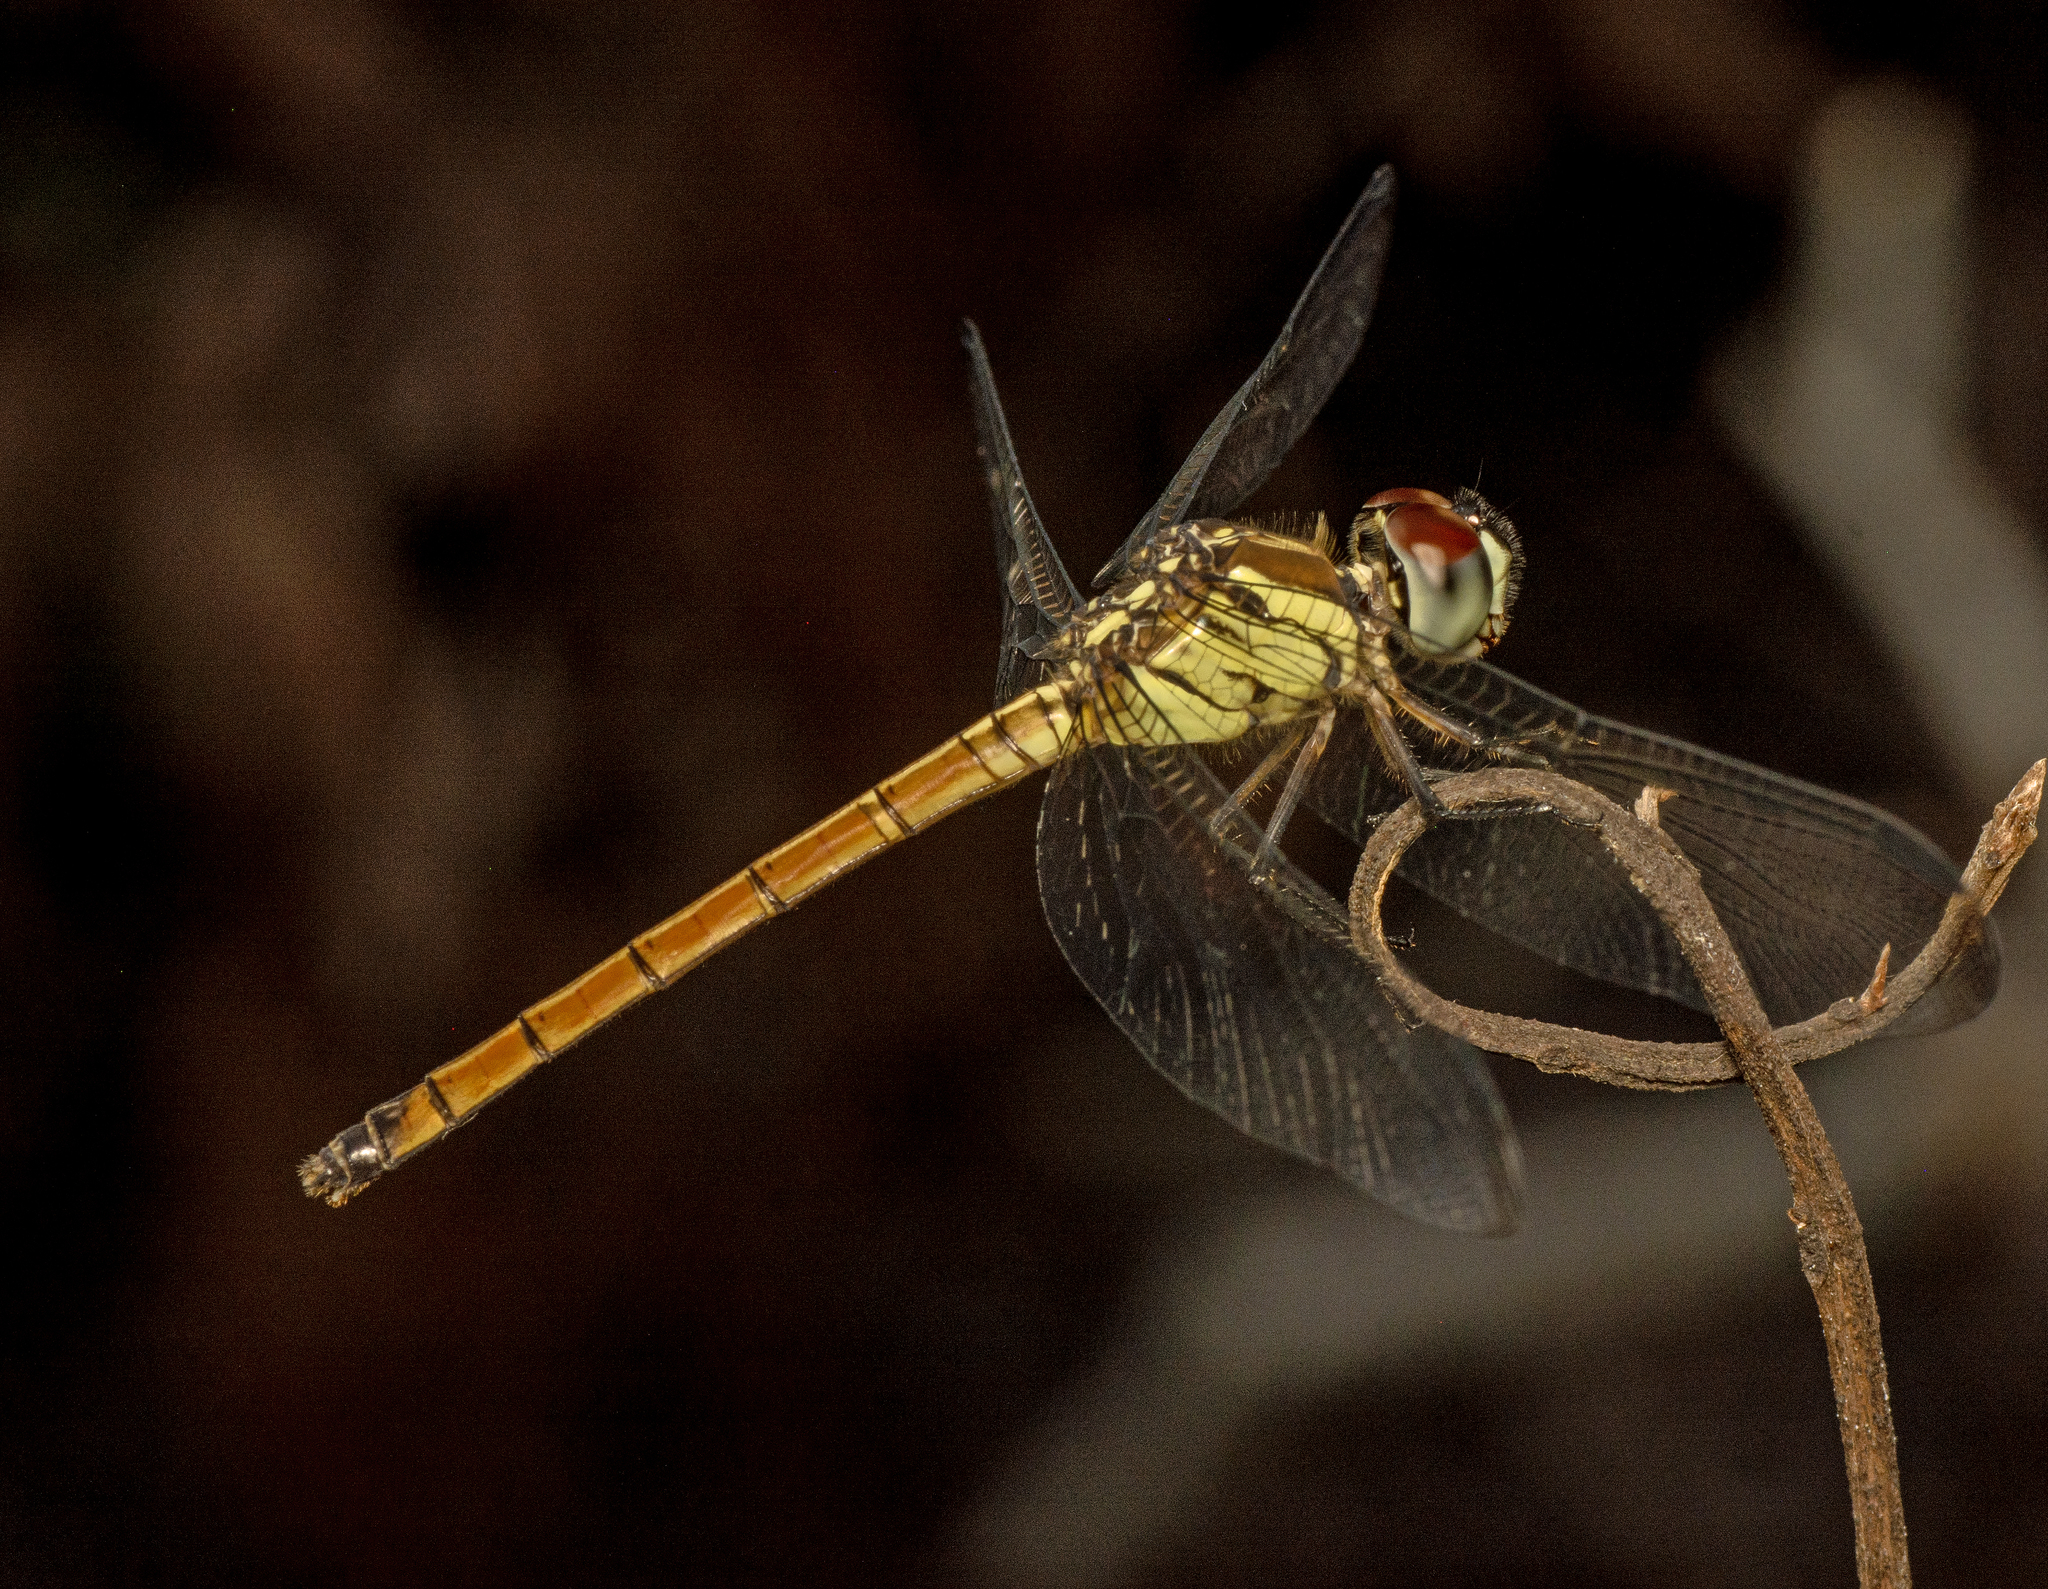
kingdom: Animalia
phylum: Arthropoda
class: Insecta
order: Odonata
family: Libellulidae
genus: Lathrecista
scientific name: Lathrecista asiatica
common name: Scarlet grenadier
